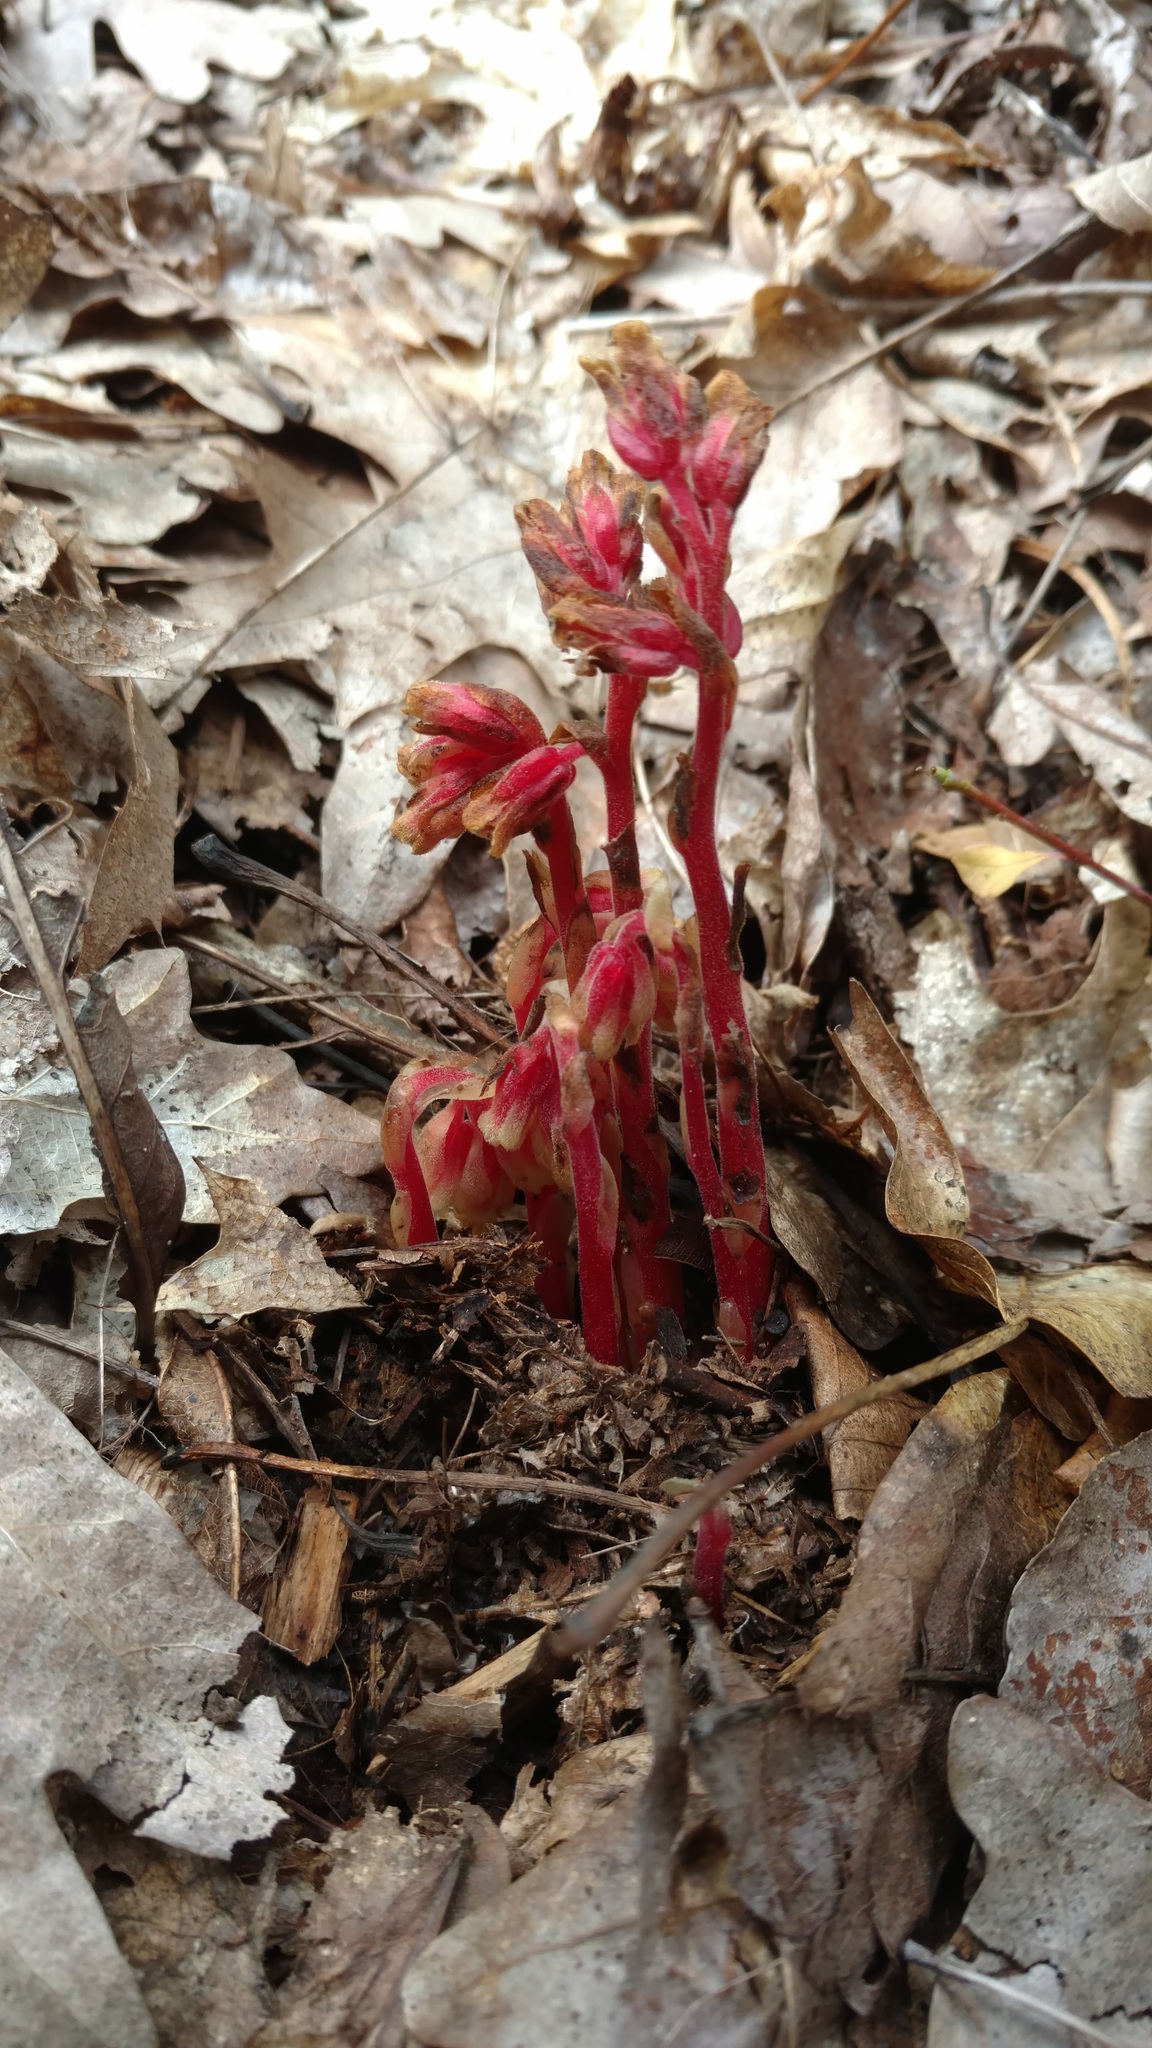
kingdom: Plantae
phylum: Tracheophyta
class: Magnoliopsida
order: Ericales
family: Ericaceae
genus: Hypopitys
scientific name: Hypopitys monotropa
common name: Yellow bird's-nest
